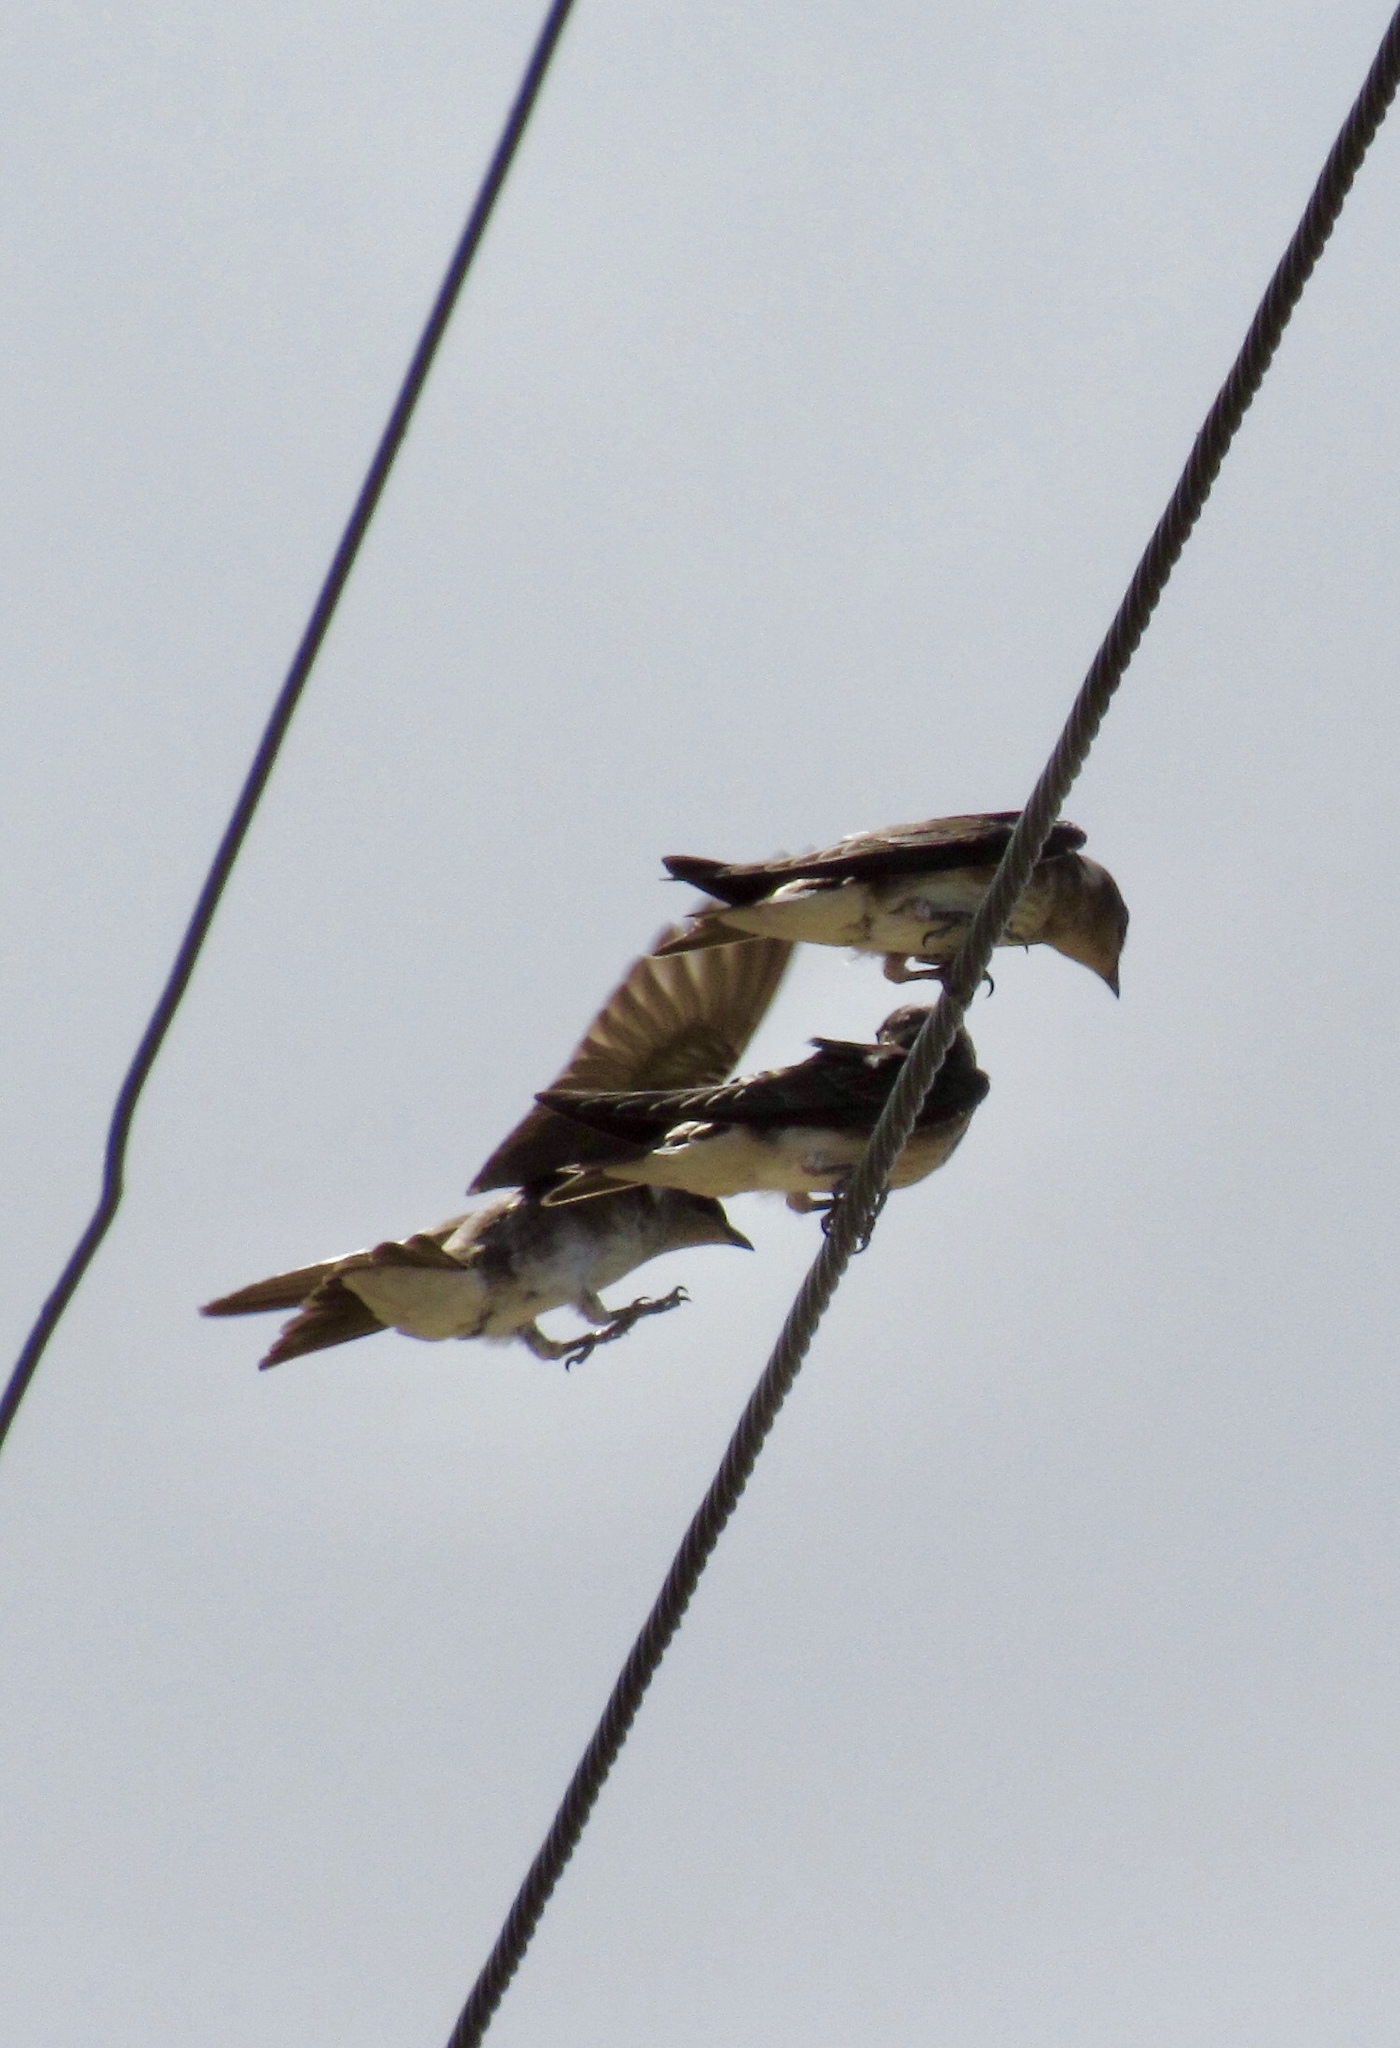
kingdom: Animalia
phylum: Chordata
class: Aves
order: Passeriformes
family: Hirundinidae
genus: Progne
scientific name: Progne subis
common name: Purple martin
